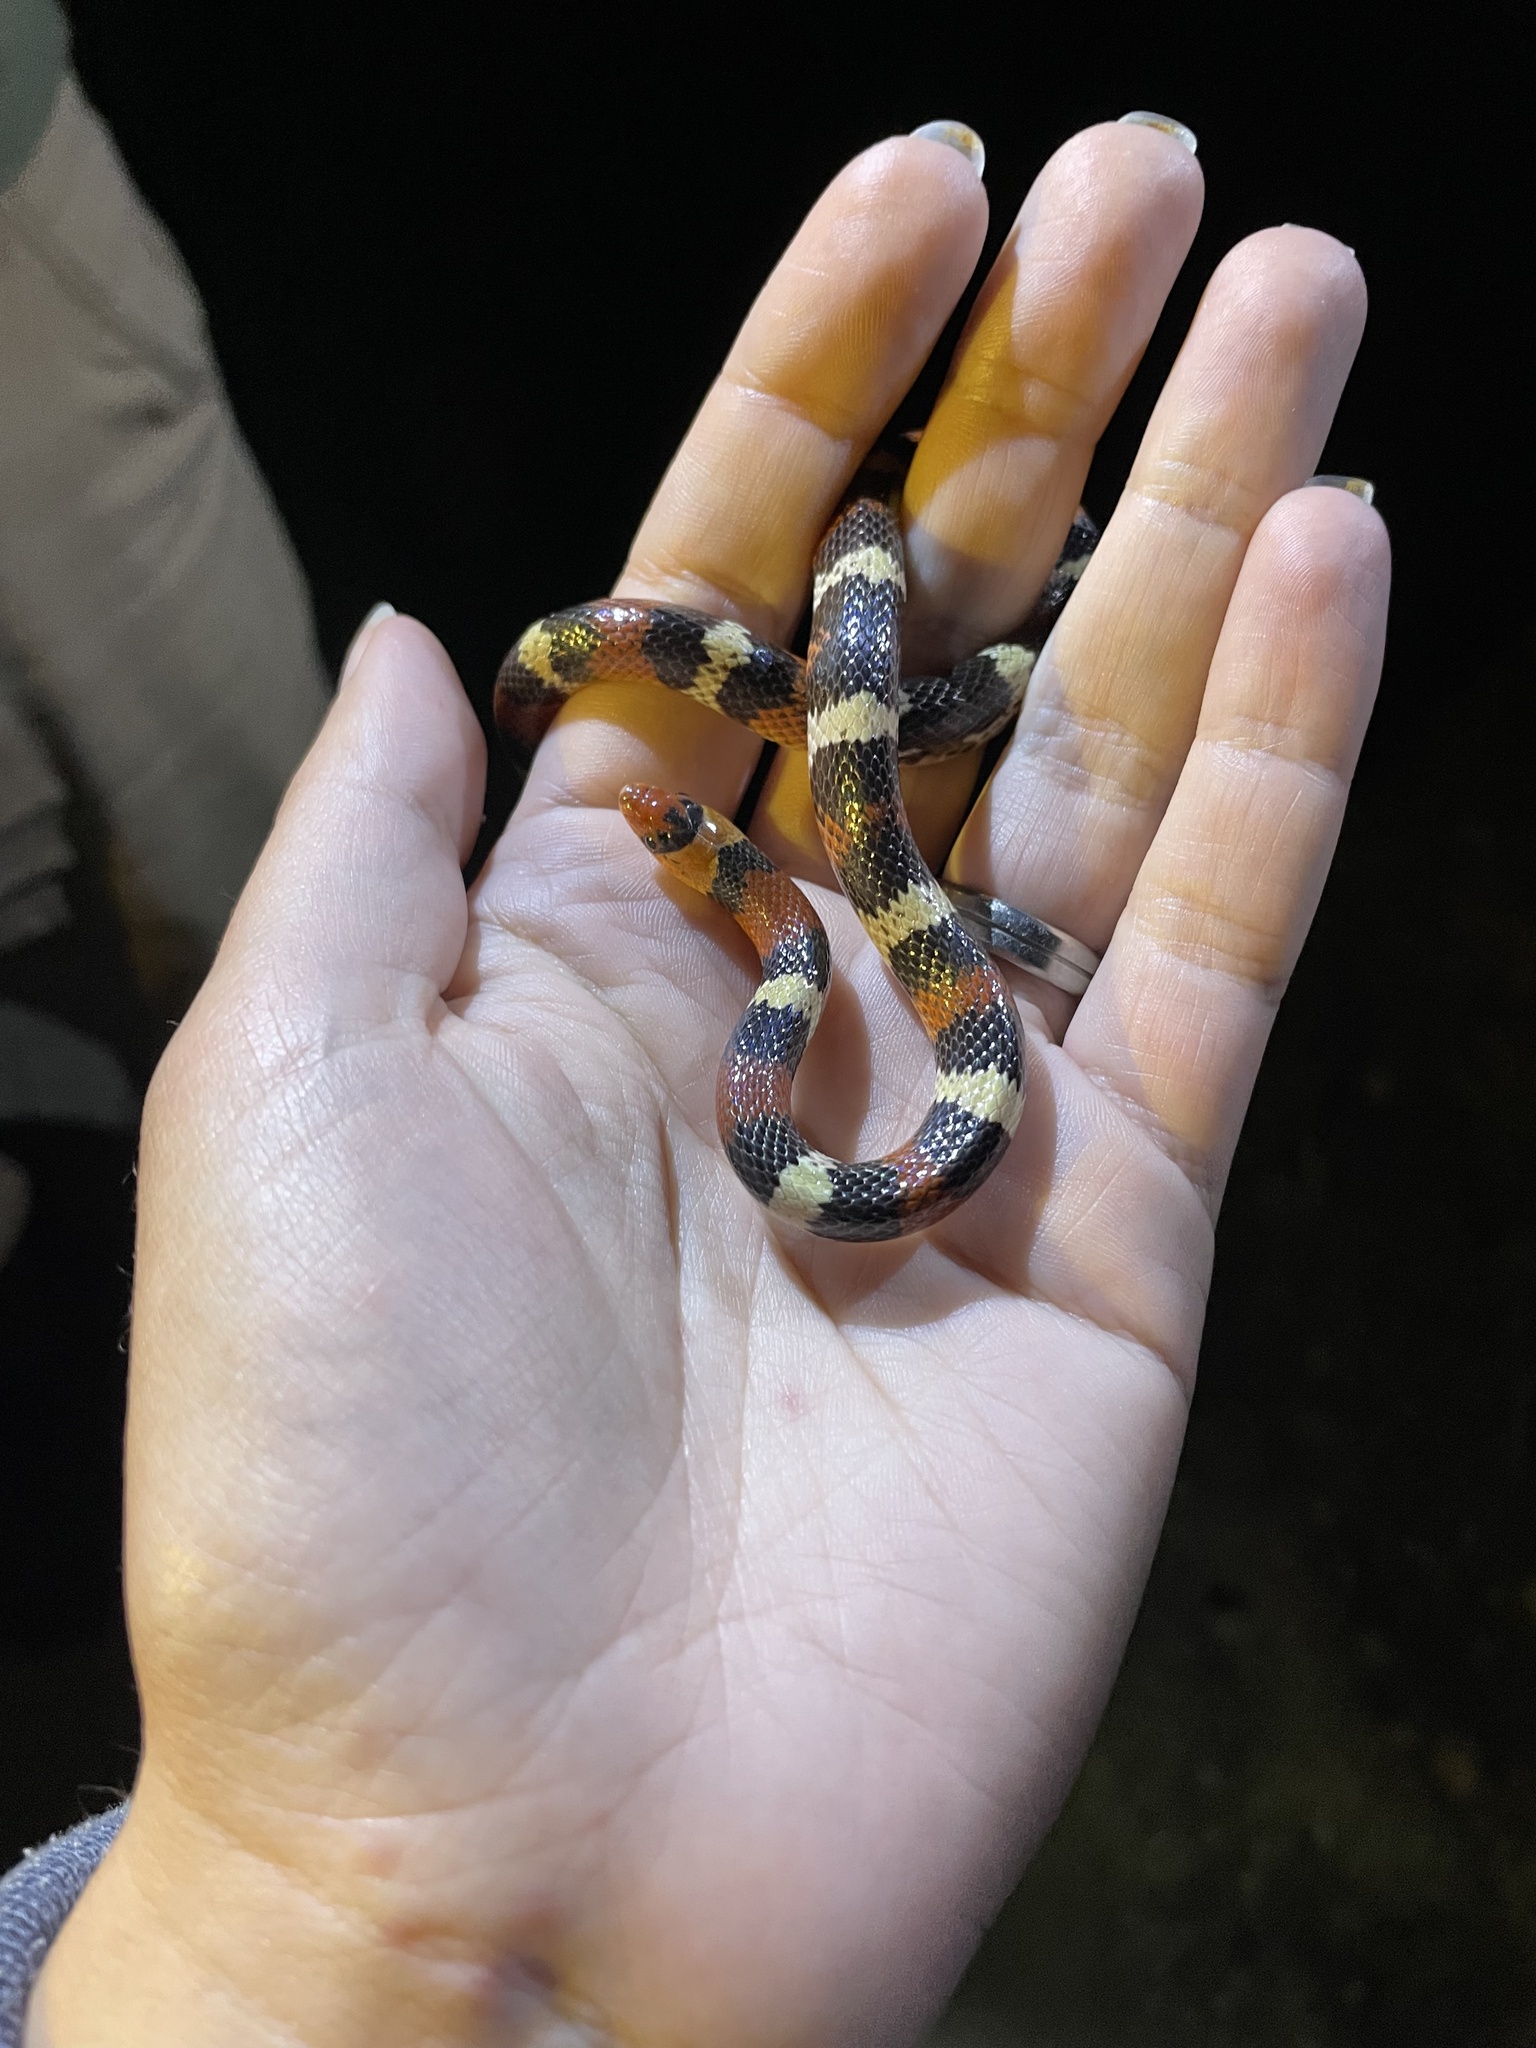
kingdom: Animalia
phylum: Chordata
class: Squamata
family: Colubridae
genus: Cemophora
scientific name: Cemophora coccinea
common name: Scarlet snake
